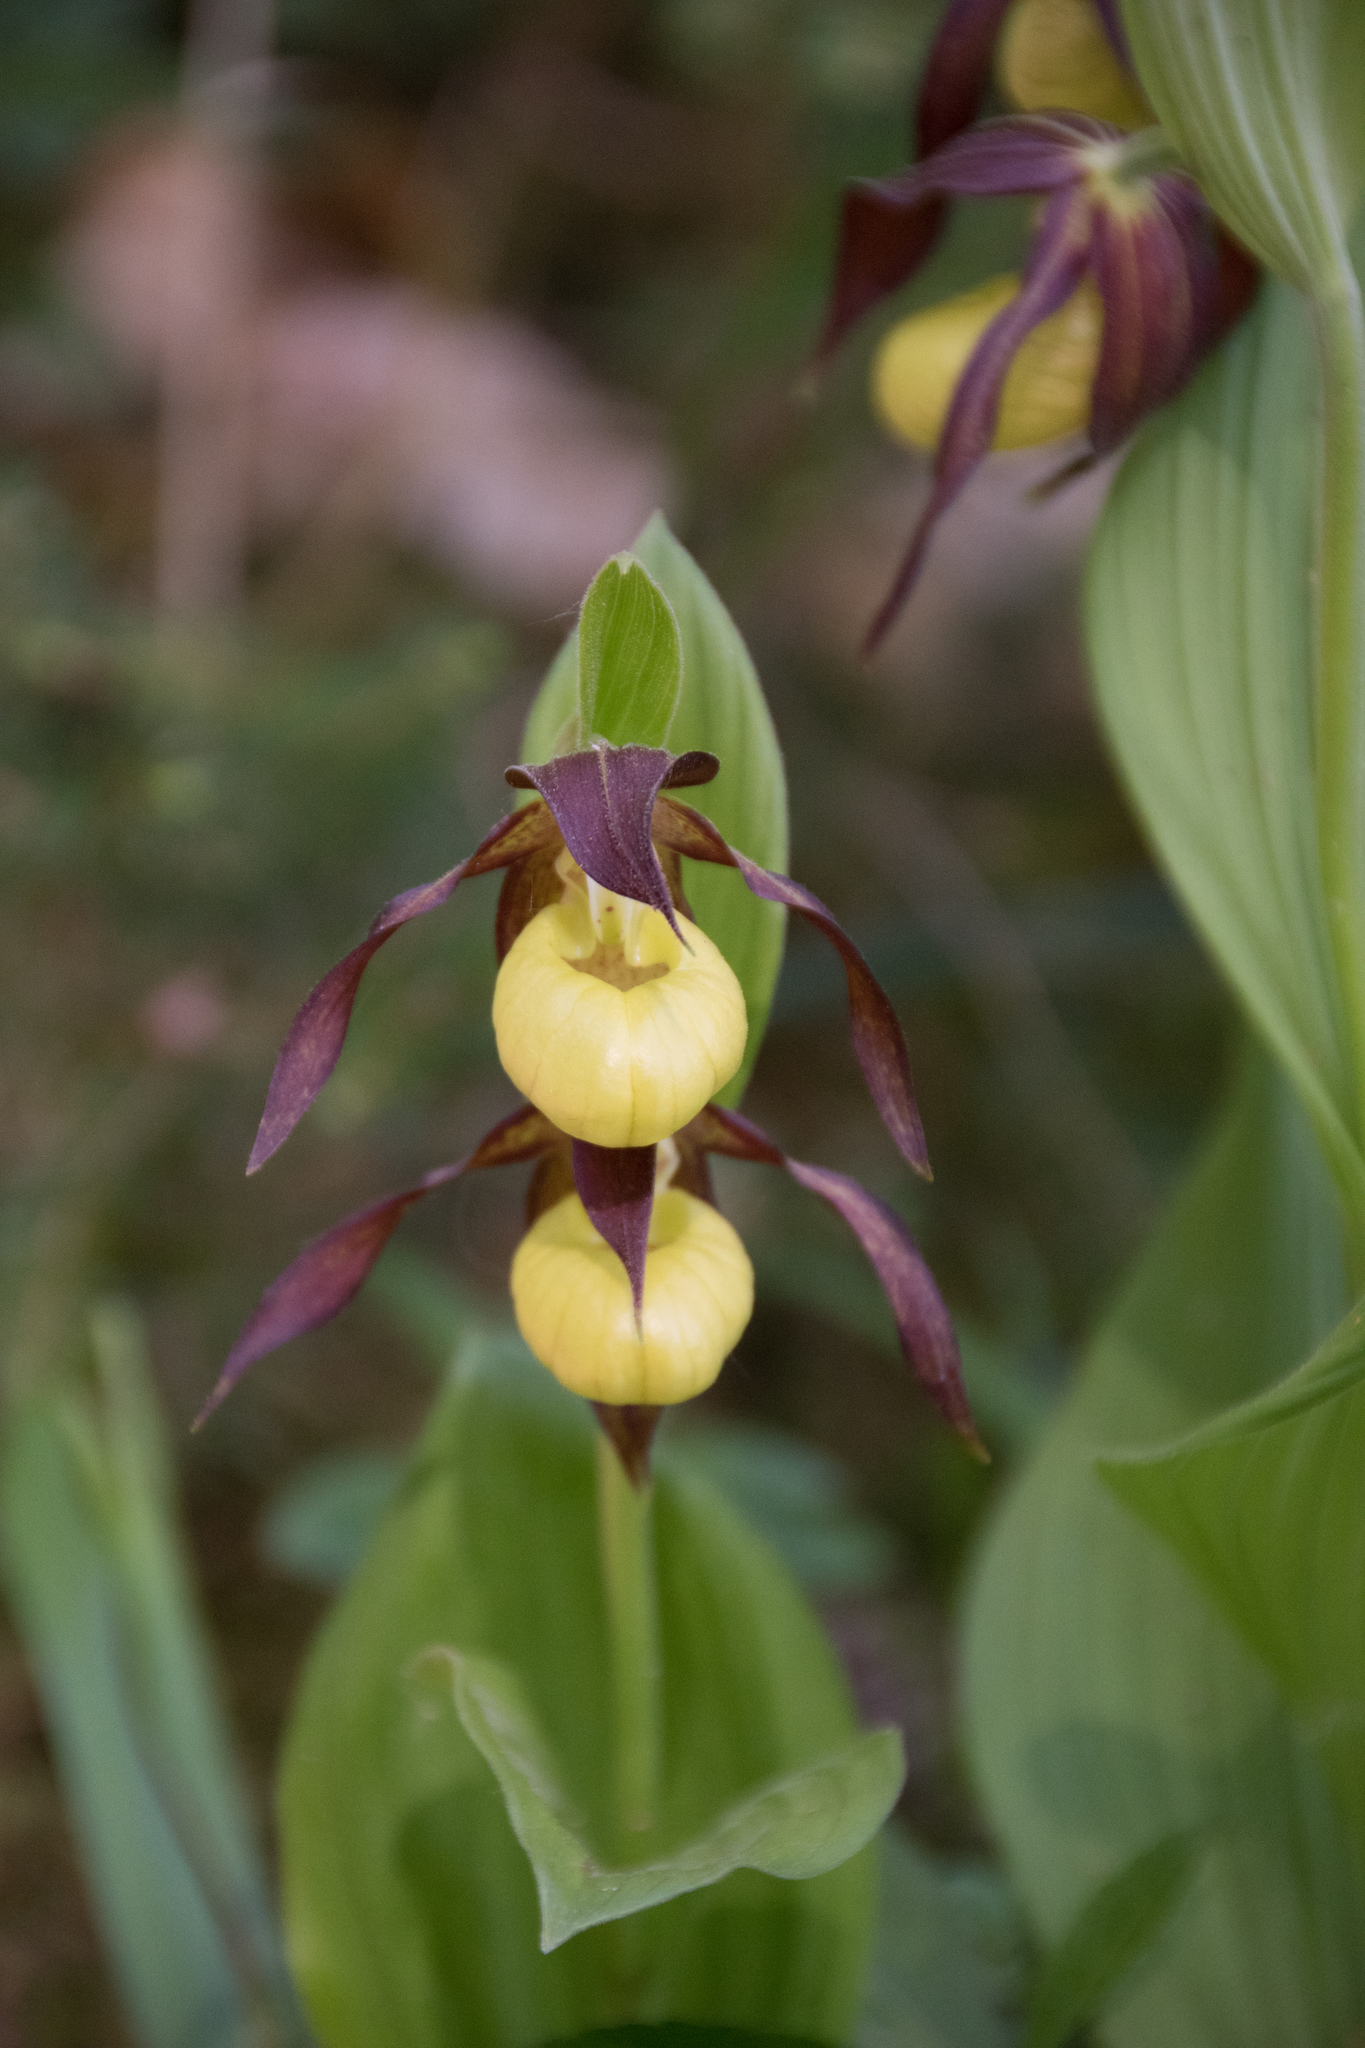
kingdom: Plantae
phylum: Tracheophyta
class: Liliopsida
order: Asparagales
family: Orchidaceae
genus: Cypripedium
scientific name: Cypripedium calceolus
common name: Lady's-slipper
